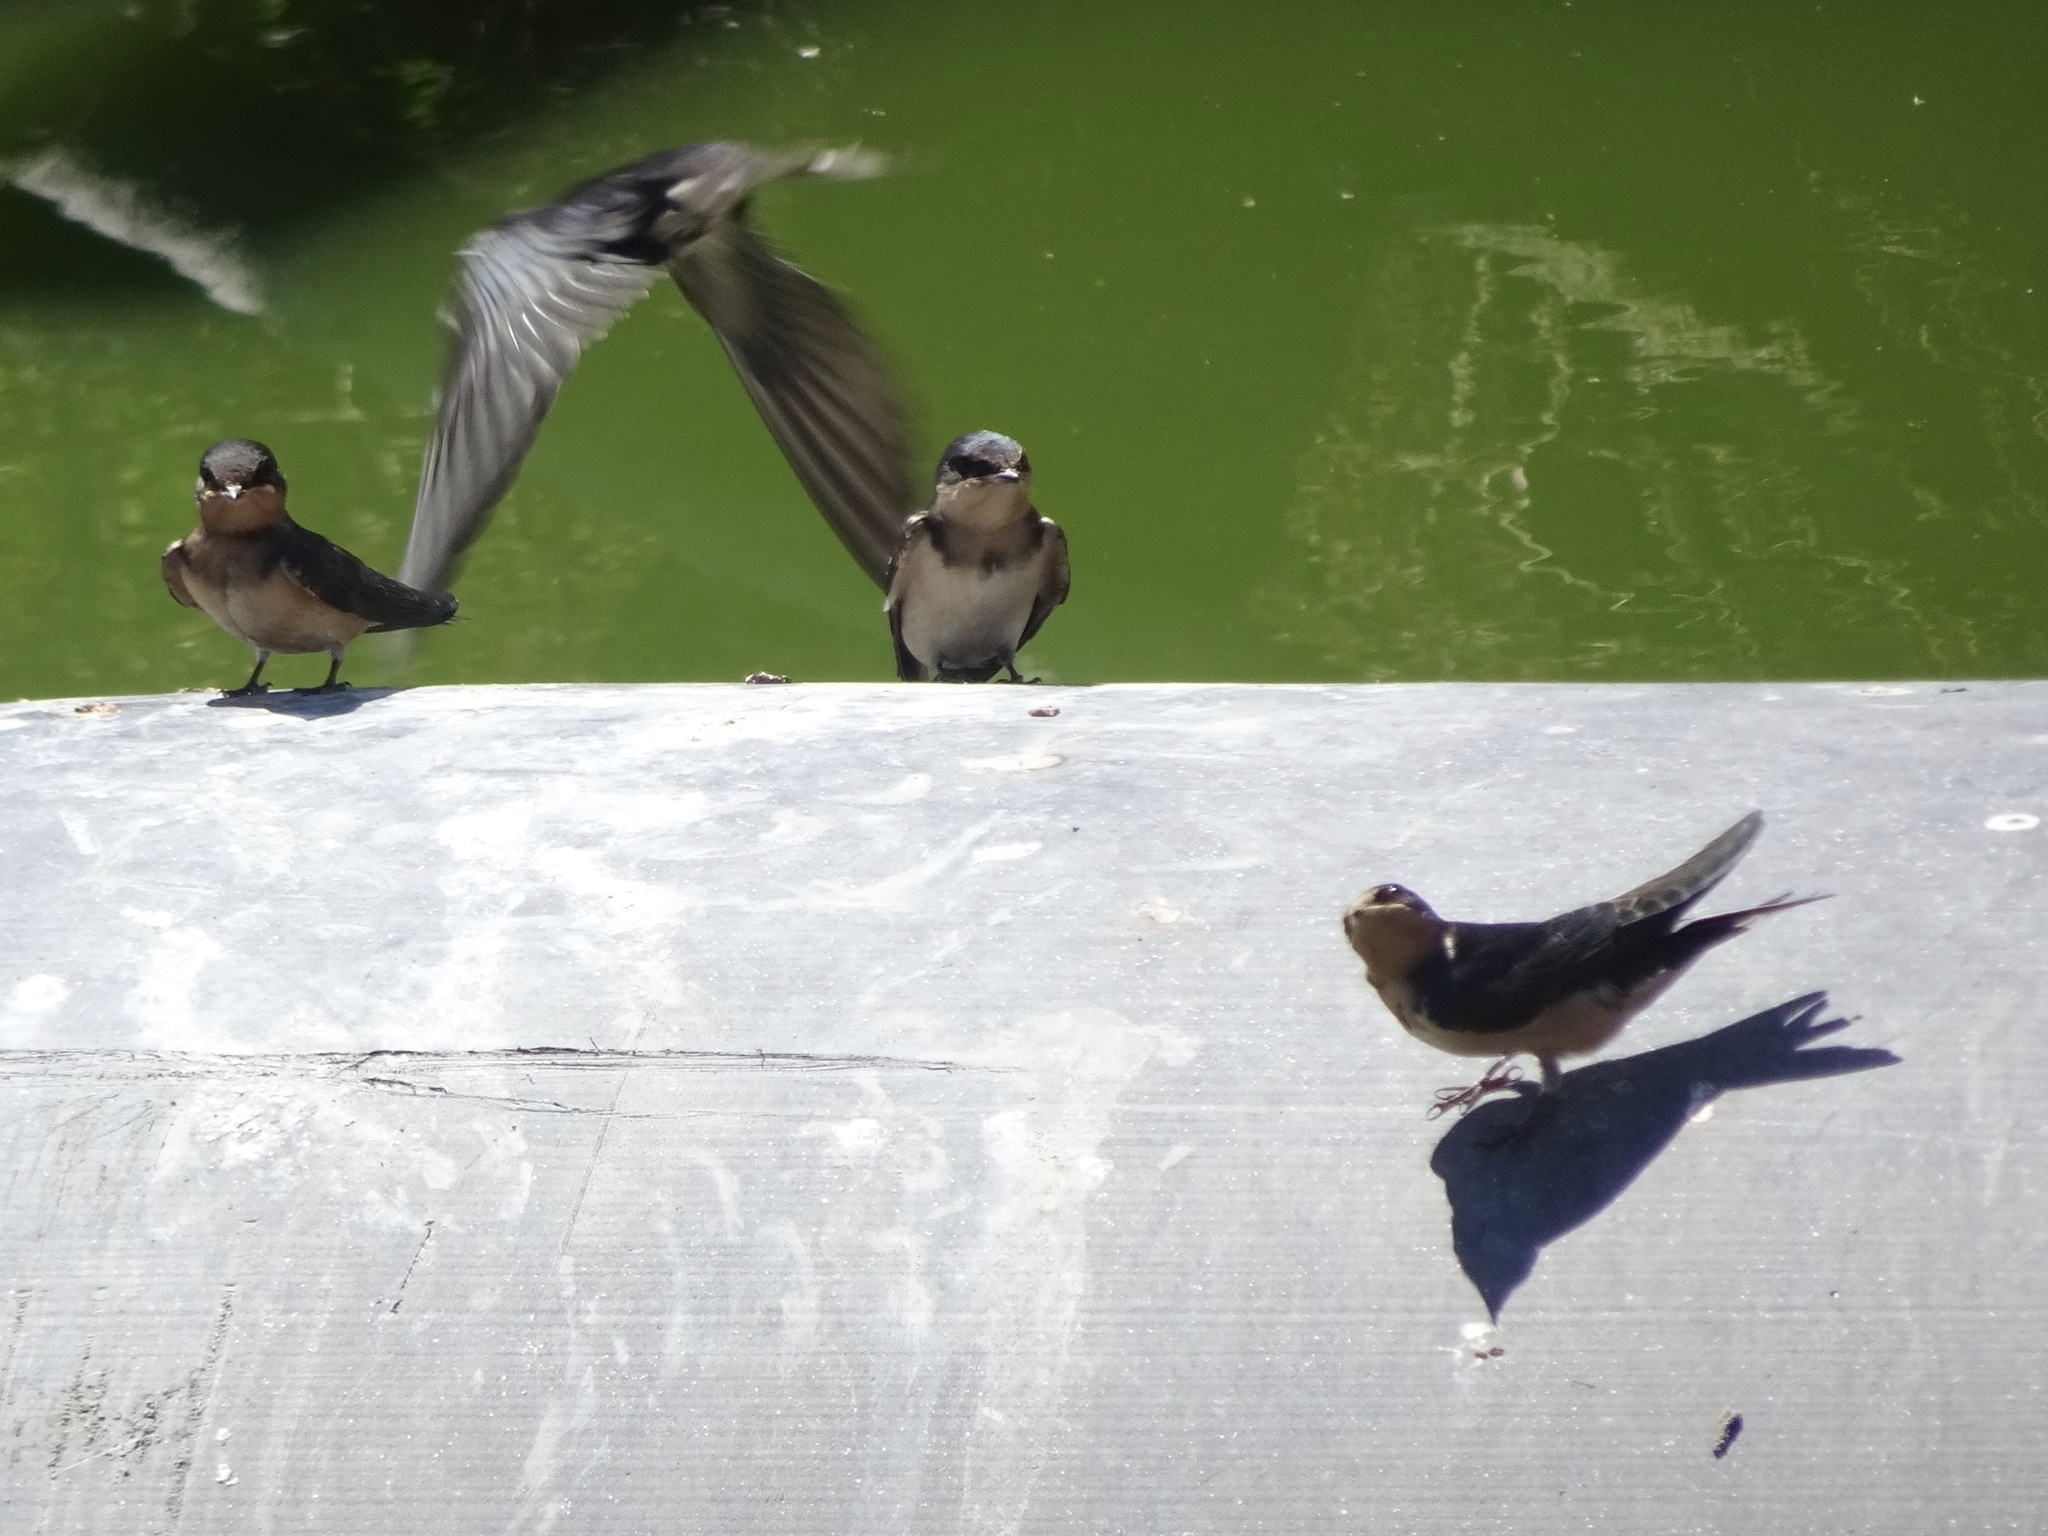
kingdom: Animalia
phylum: Chordata
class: Aves
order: Passeriformes
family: Hirundinidae
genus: Hirundo
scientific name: Hirundo rustica
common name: Barn swallow
